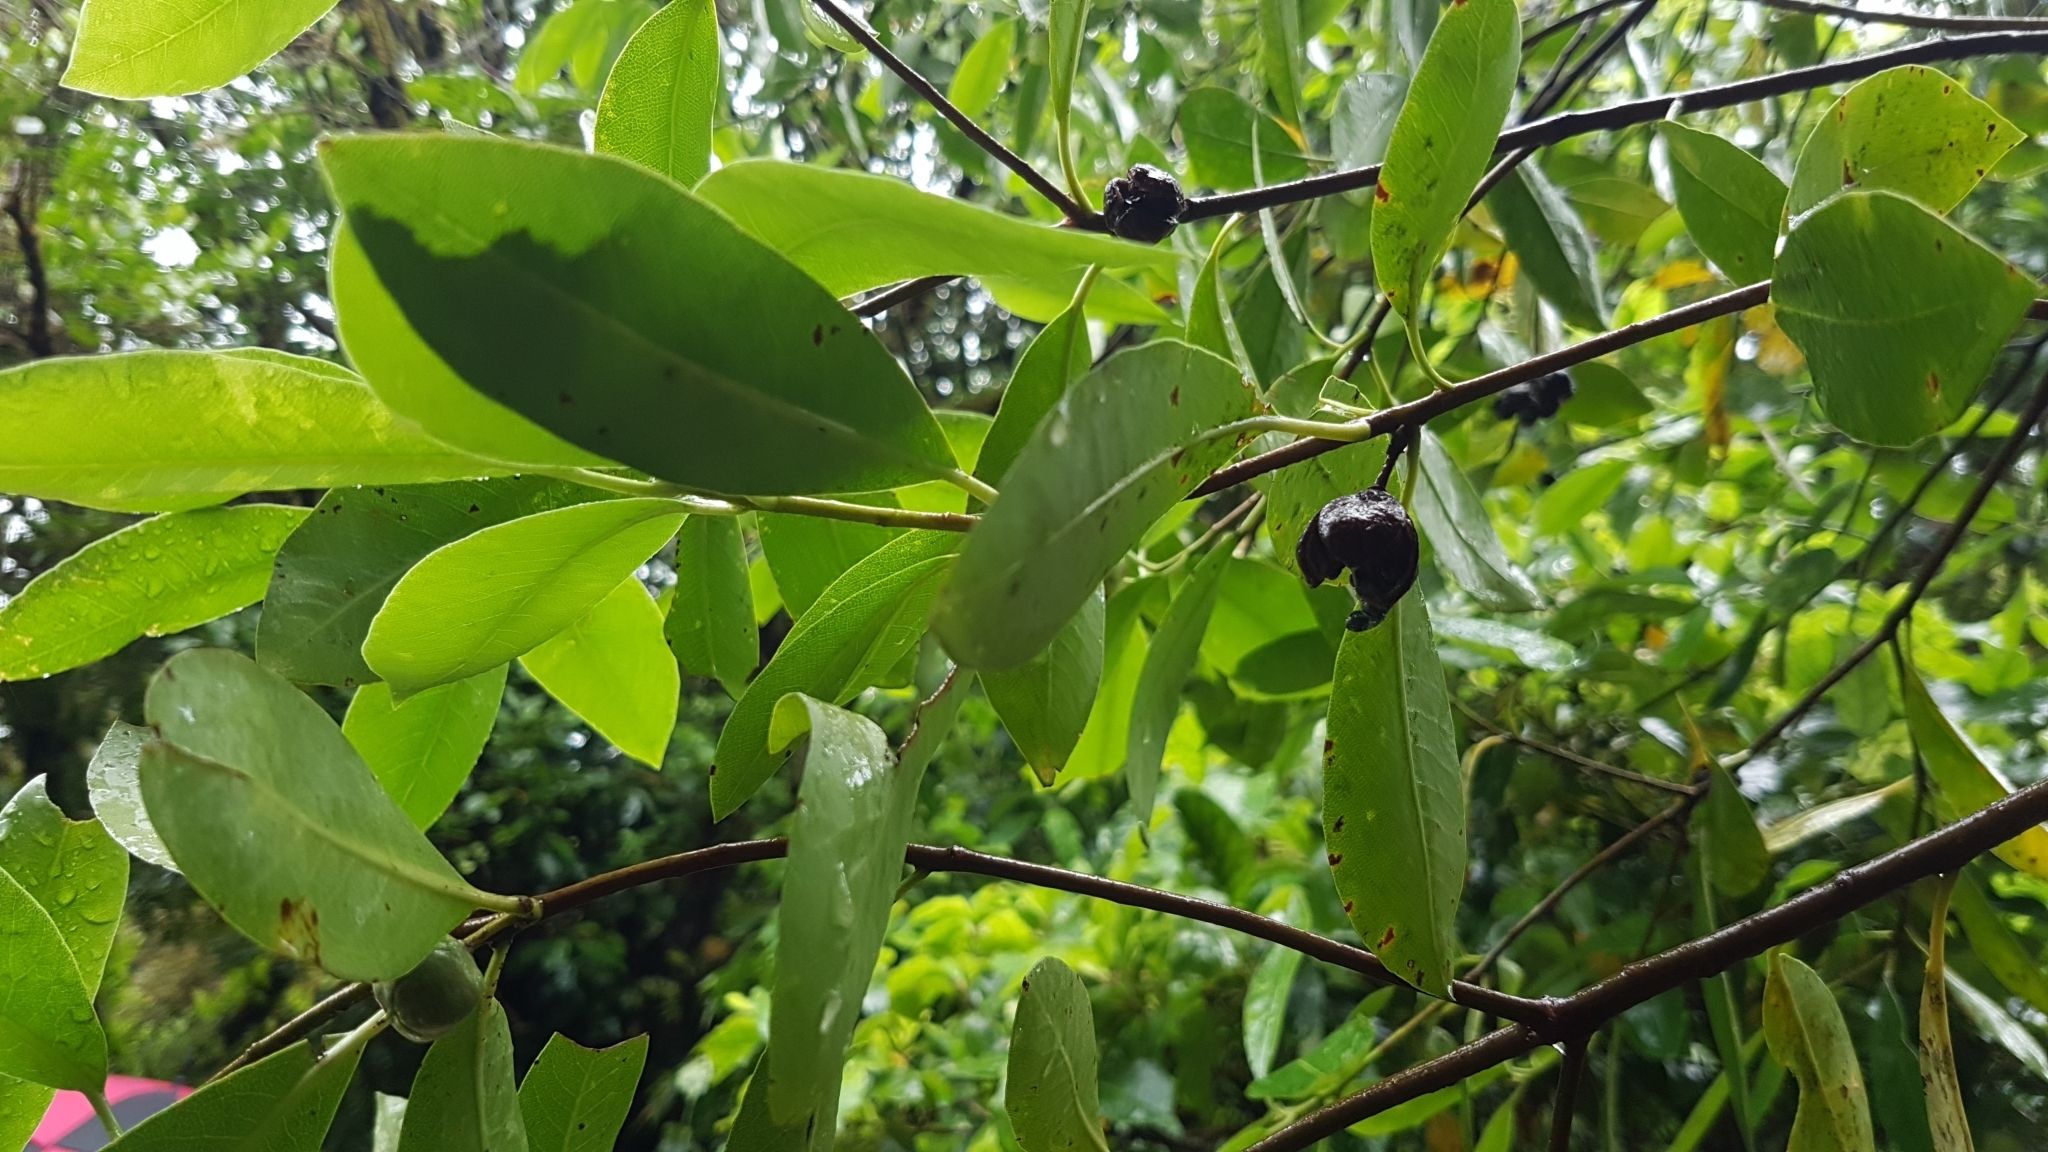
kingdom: Plantae
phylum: Tracheophyta
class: Magnoliopsida
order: Apiales
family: Pittosporaceae
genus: Pittosporum
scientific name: Pittosporum colensoi
